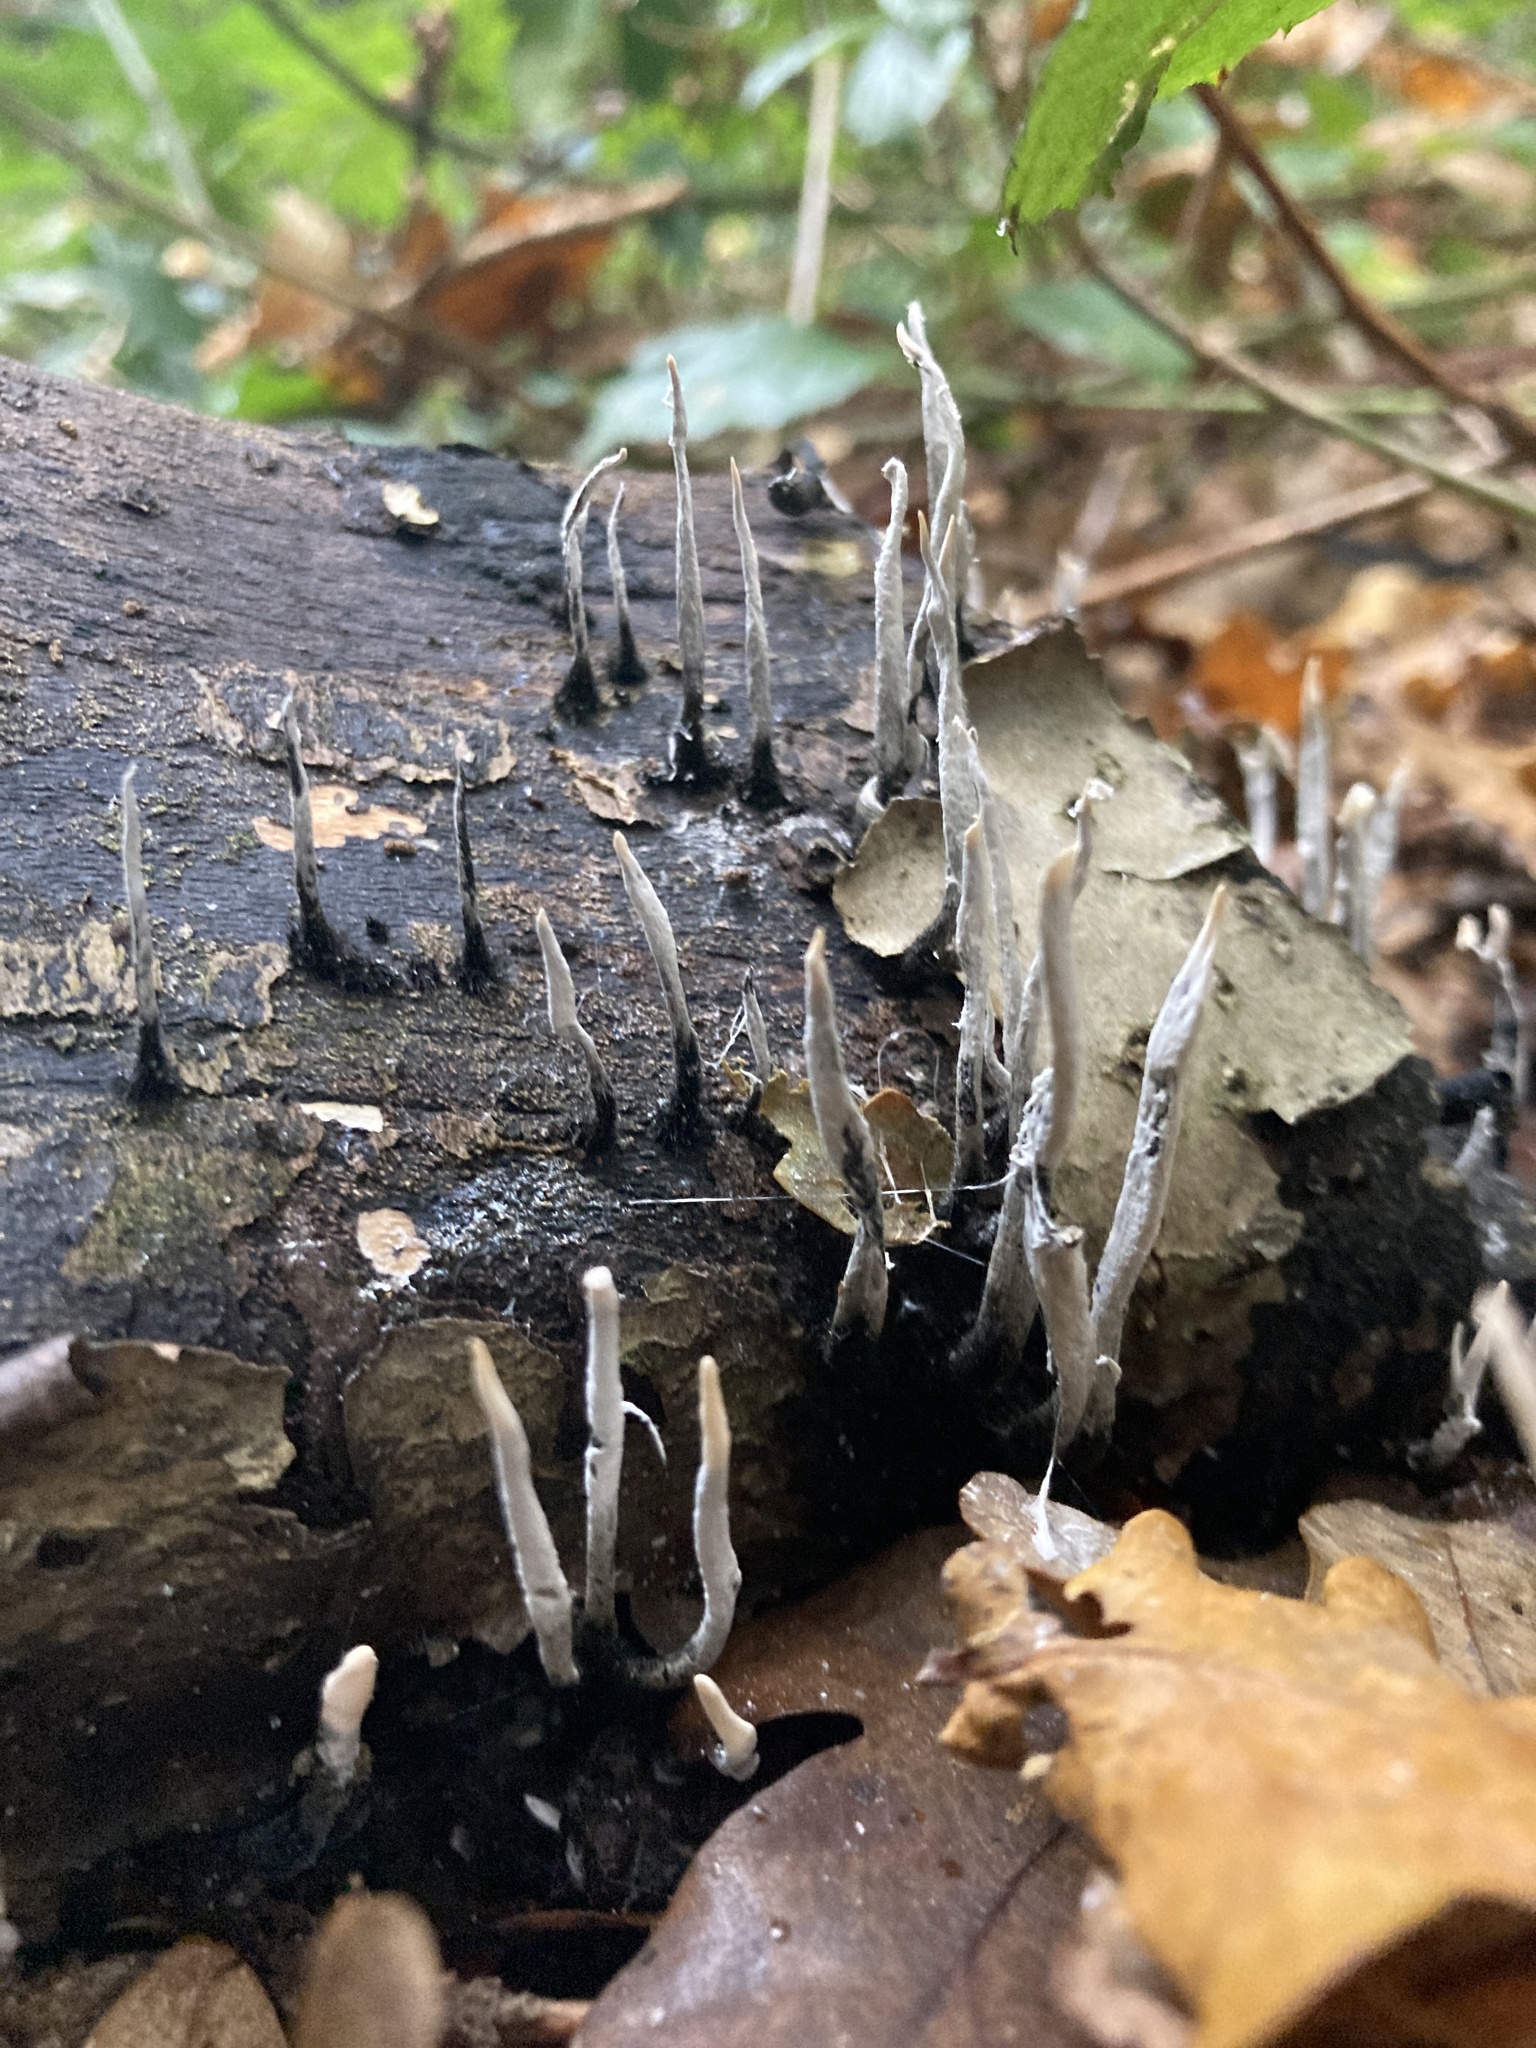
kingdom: Fungi
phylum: Ascomycota
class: Sordariomycetes
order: Xylariales
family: Xylariaceae
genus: Xylaria
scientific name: Xylaria hypoxylon
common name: Candle-snuff fungus
